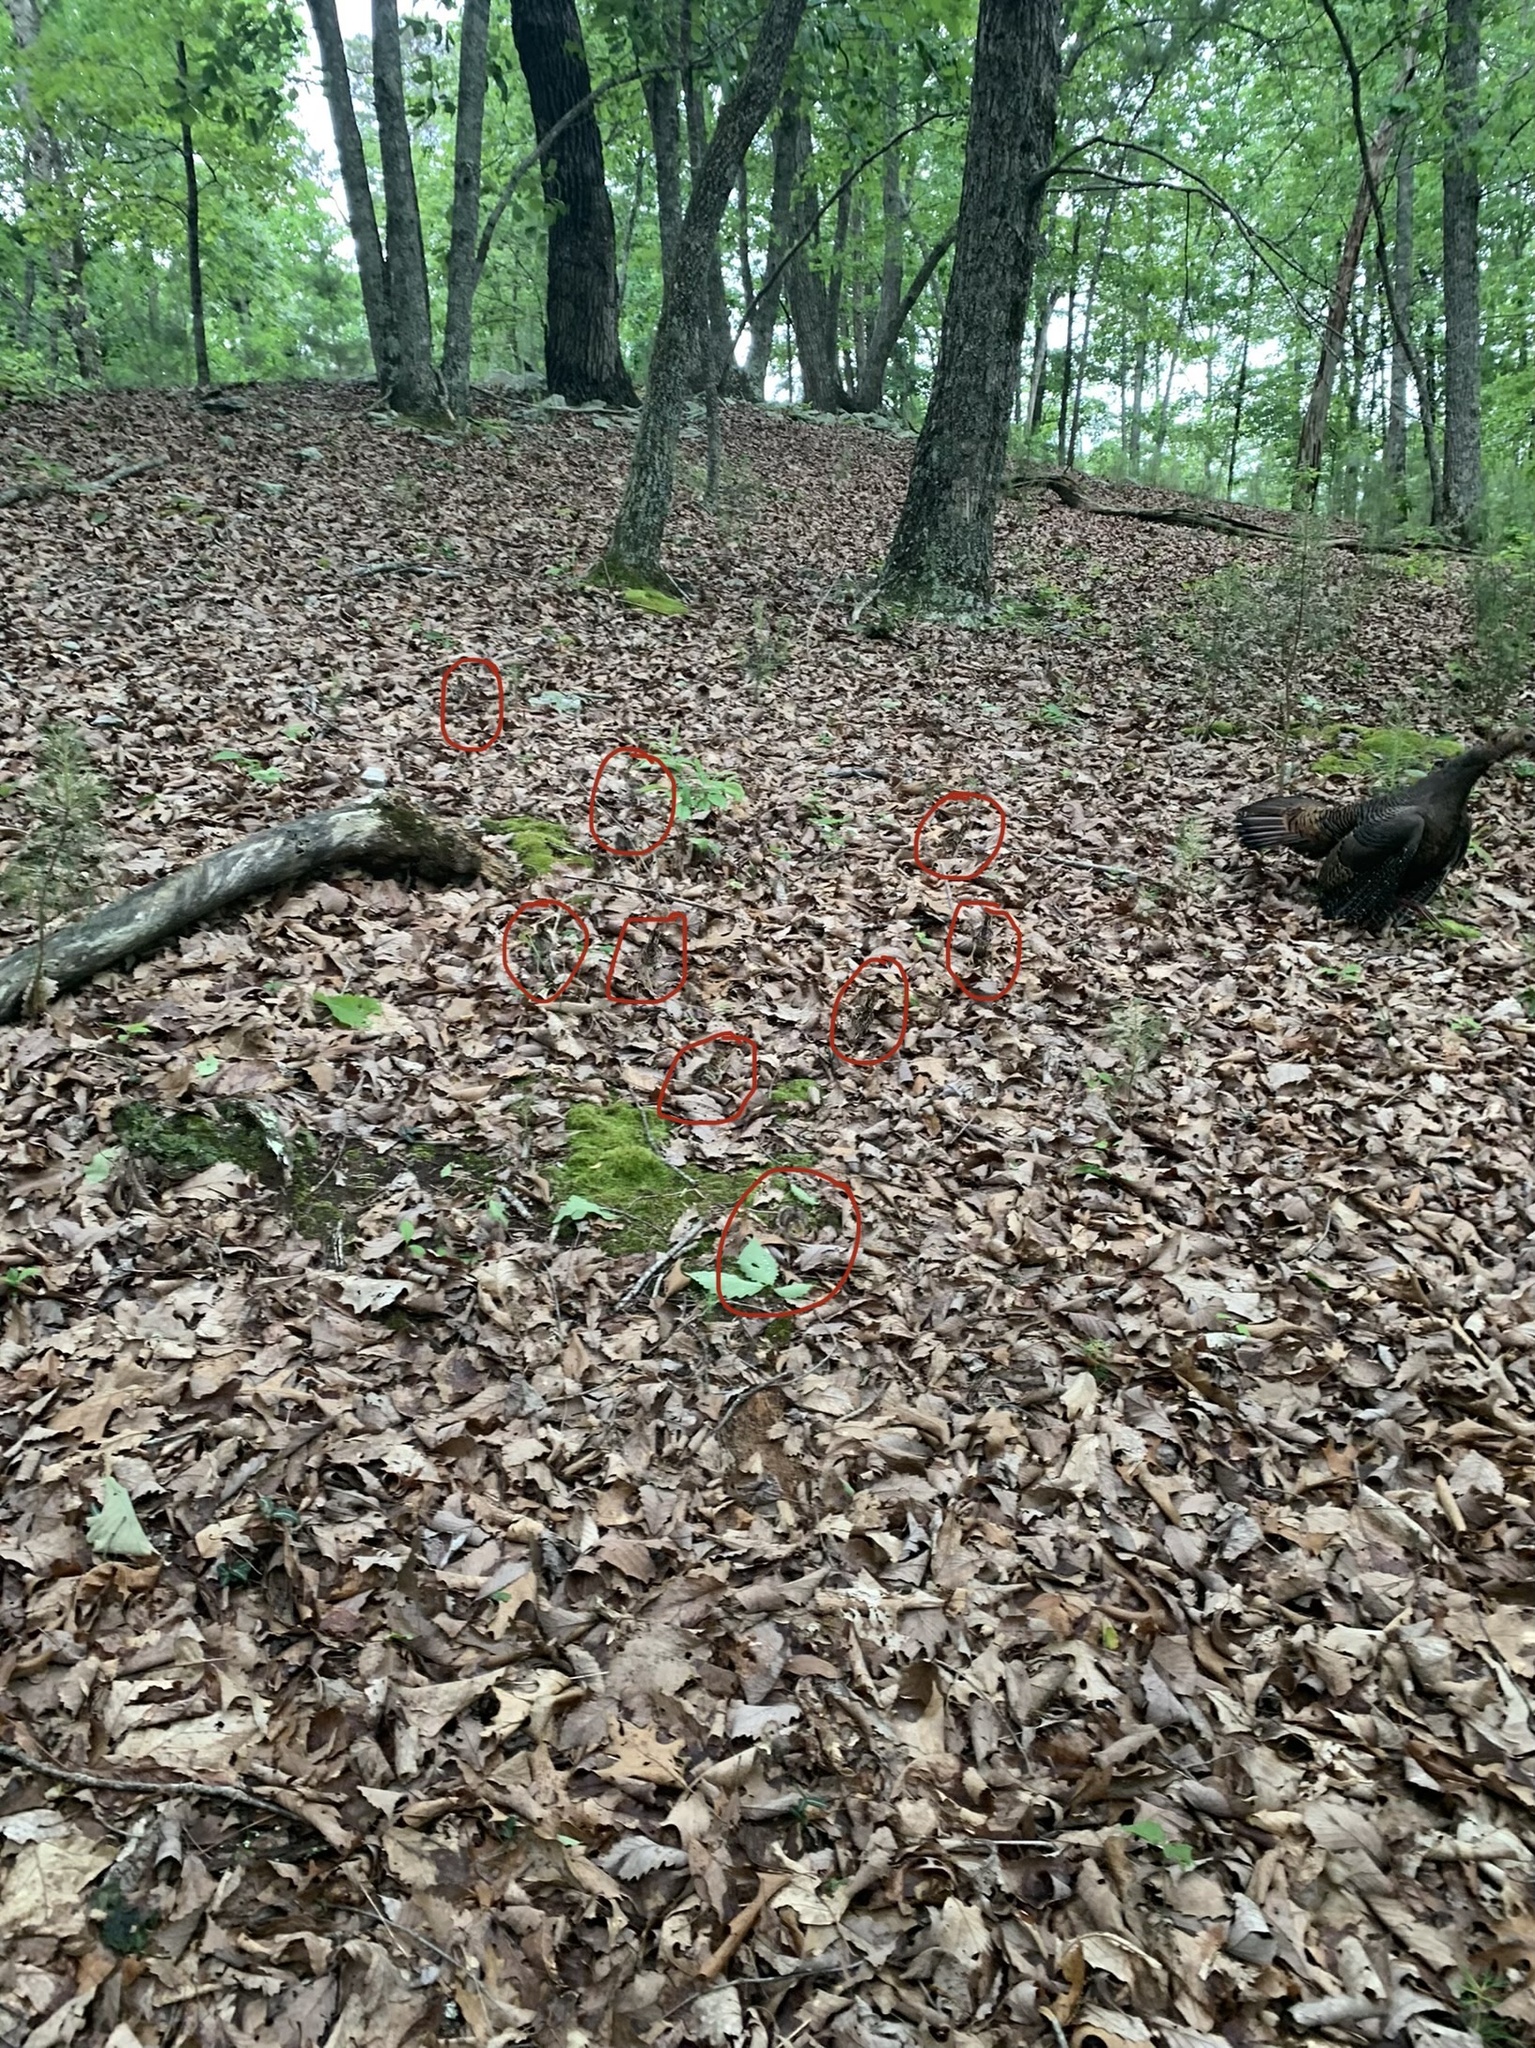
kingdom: Animalia
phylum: Chordata
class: Aves
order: Galliformes
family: Phasianidae
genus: Meleagris
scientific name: Meleagris gallopavo
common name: Wild turkey
